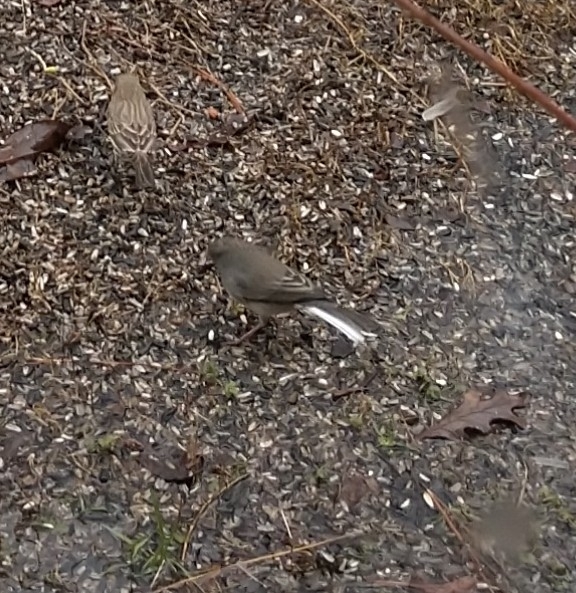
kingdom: Animalia
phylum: Chordata
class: Aves
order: Passeriformes
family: Passerellidae
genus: Junco
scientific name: Junco hyemalis
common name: Dark-eyed junco
